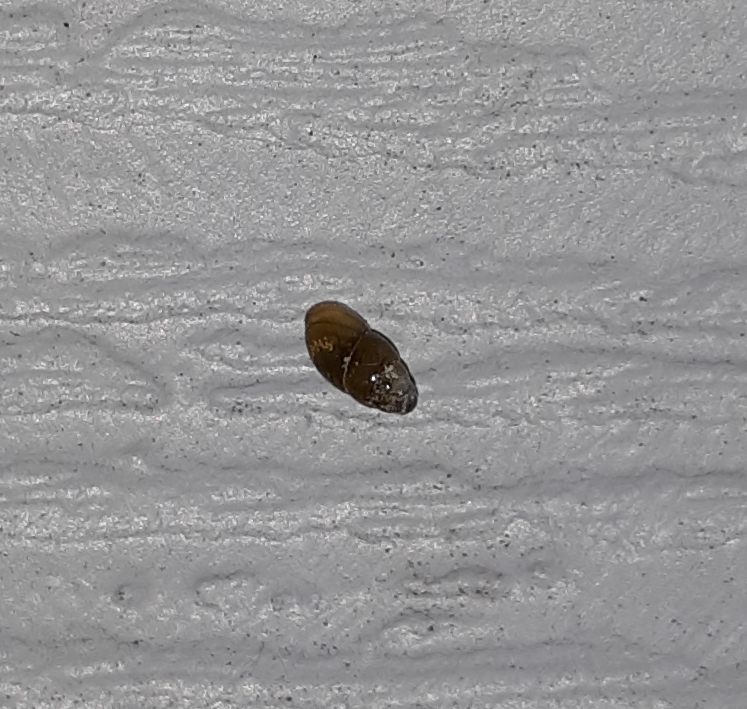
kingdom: Animalia
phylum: Mollusca
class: Gastropoda
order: Stylommatophora
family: Cochlicopidae
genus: Cochlicopa
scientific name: Cochlicopa lubrica
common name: Glossy pillar snail
